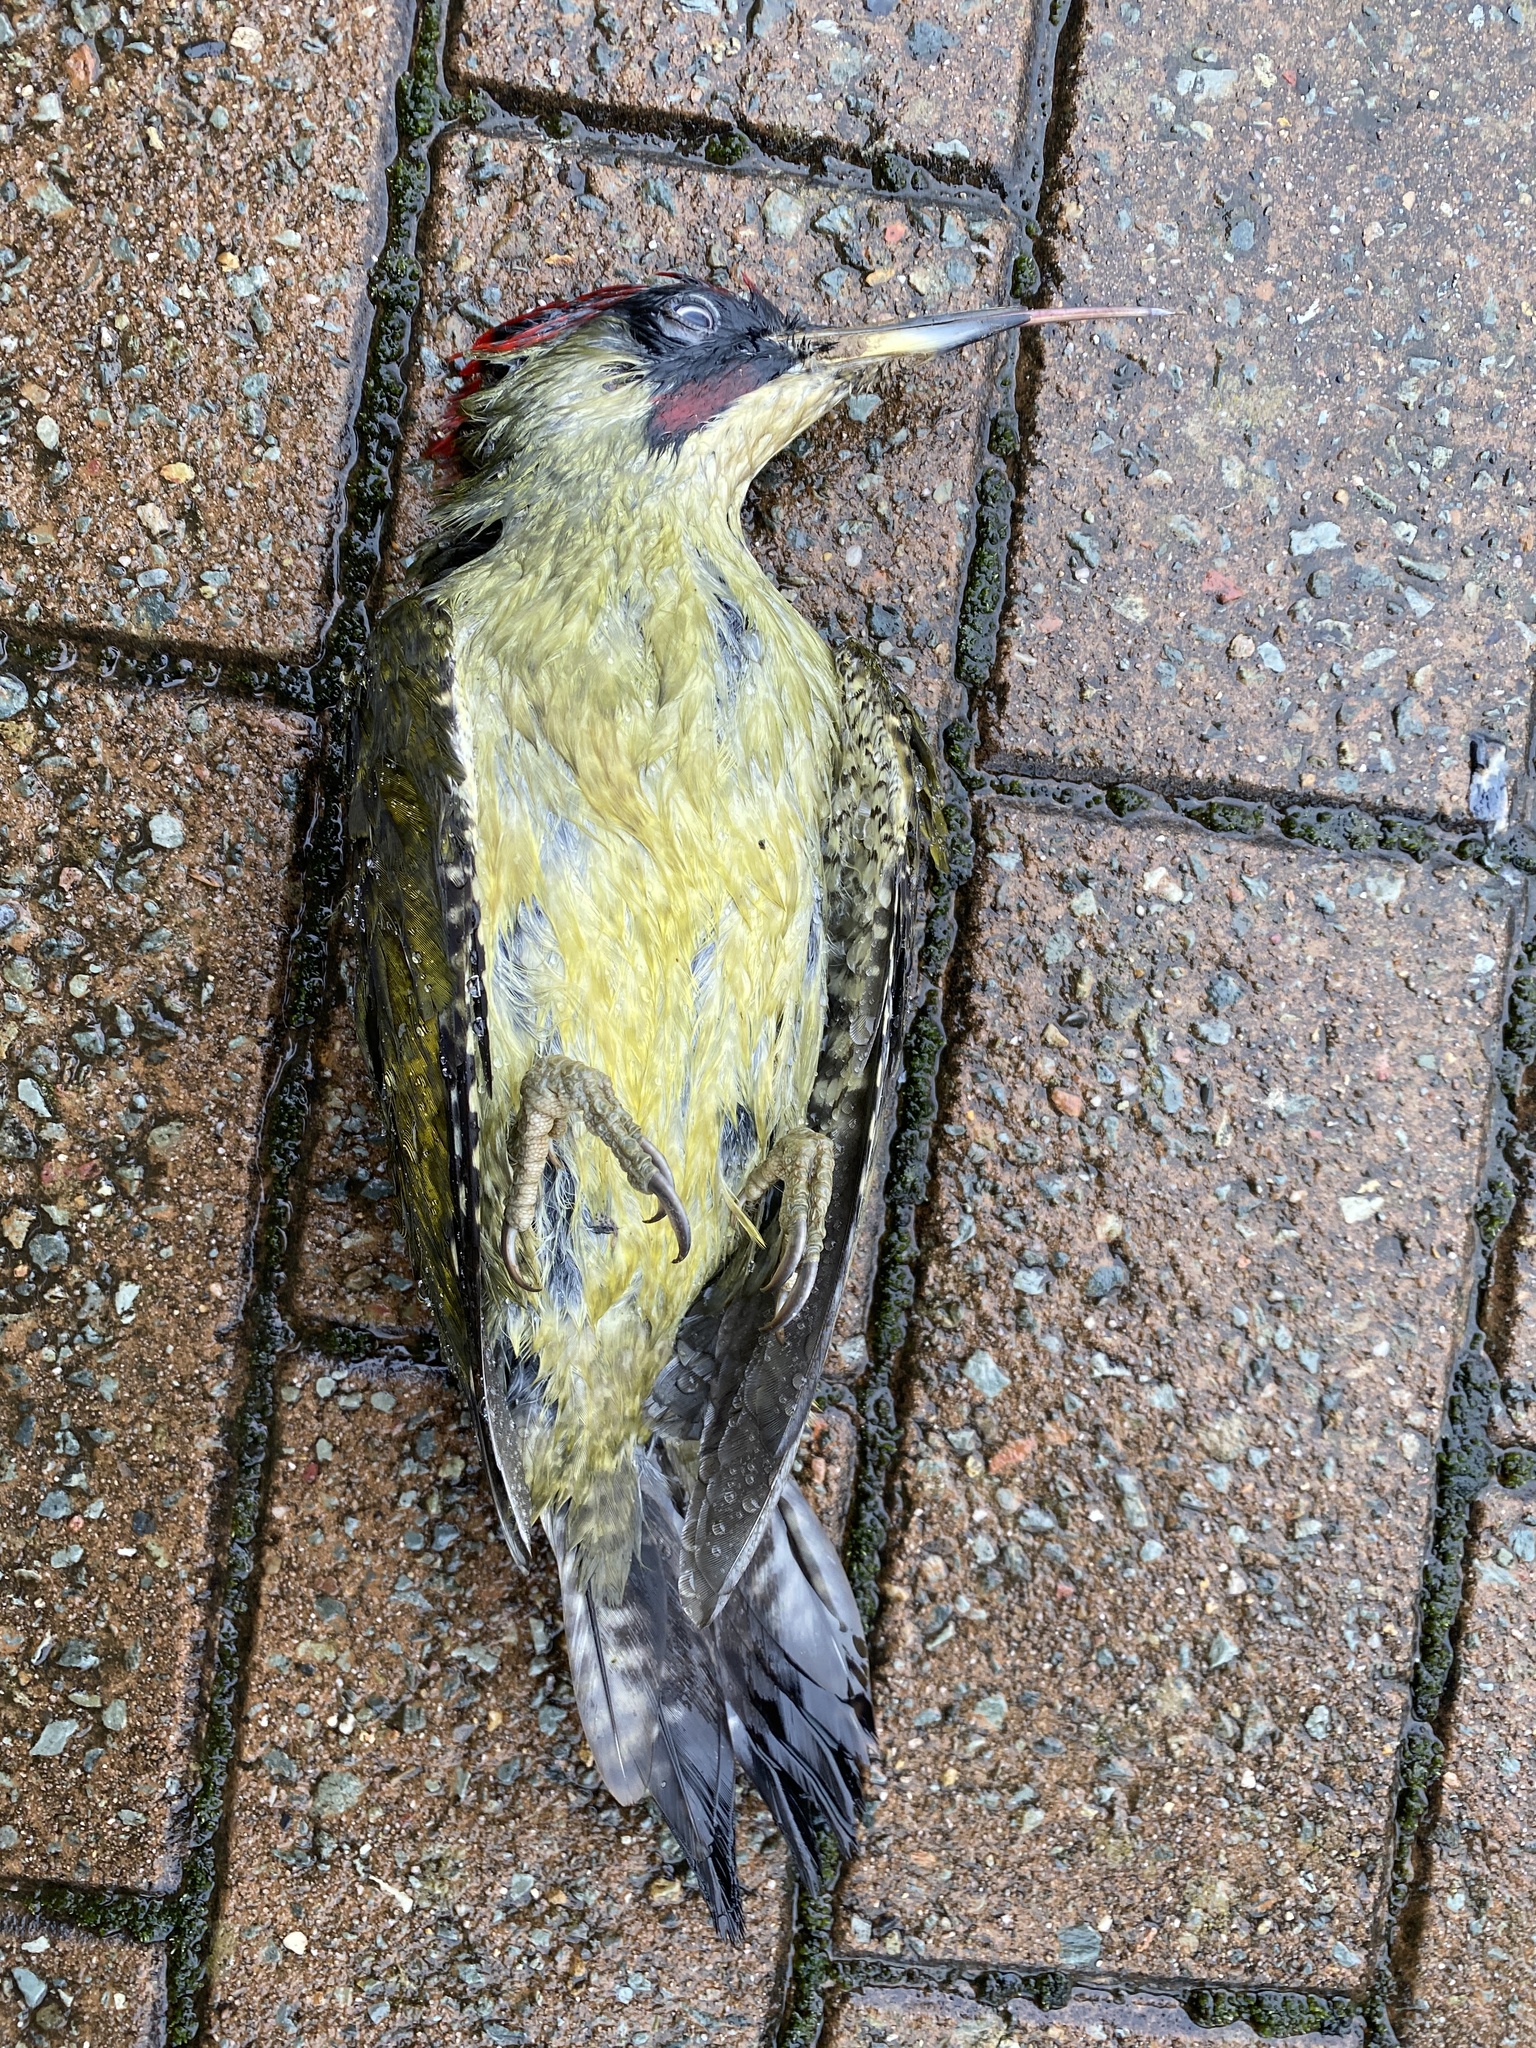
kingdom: Animalia
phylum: Chordata
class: Aves
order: Piciformes
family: Picidae
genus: Picus
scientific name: Picus viridis
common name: European green woodpecker
